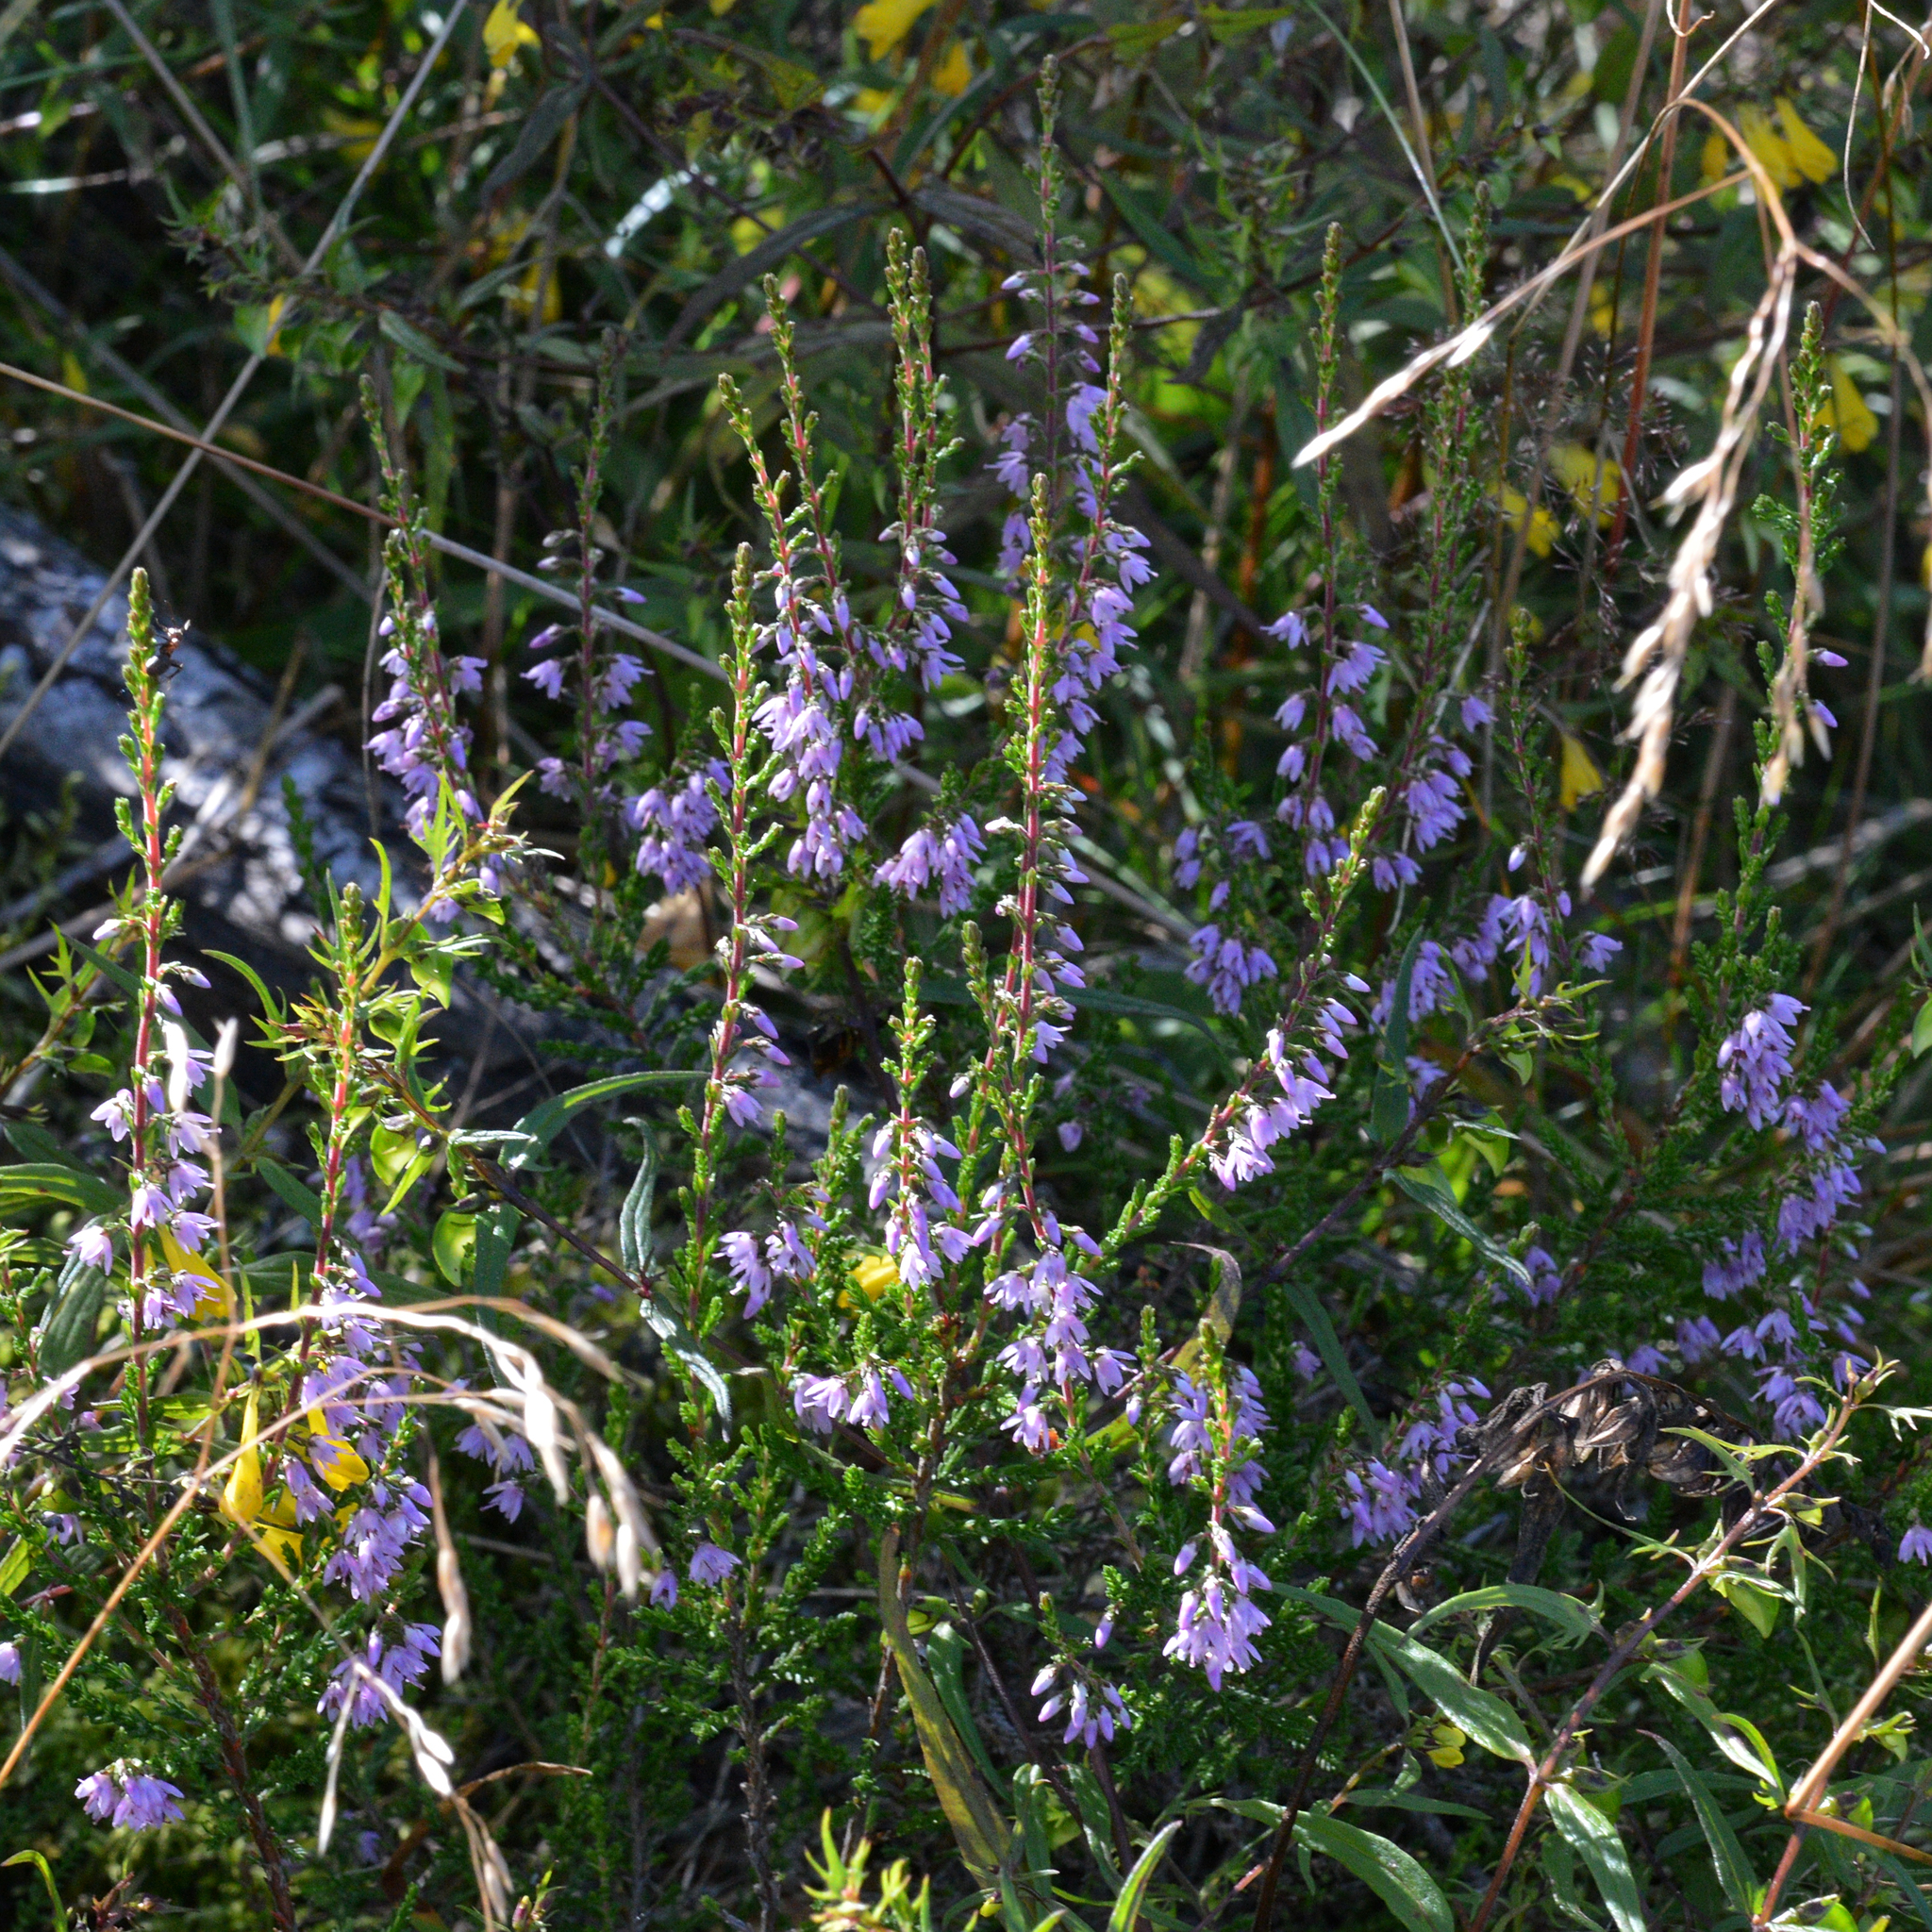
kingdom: Plantae
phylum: Tracheophyta
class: Magnoliopsida
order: Ericales
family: Ericaceae
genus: Calluna
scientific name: Calluna vulgaris
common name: Heather
